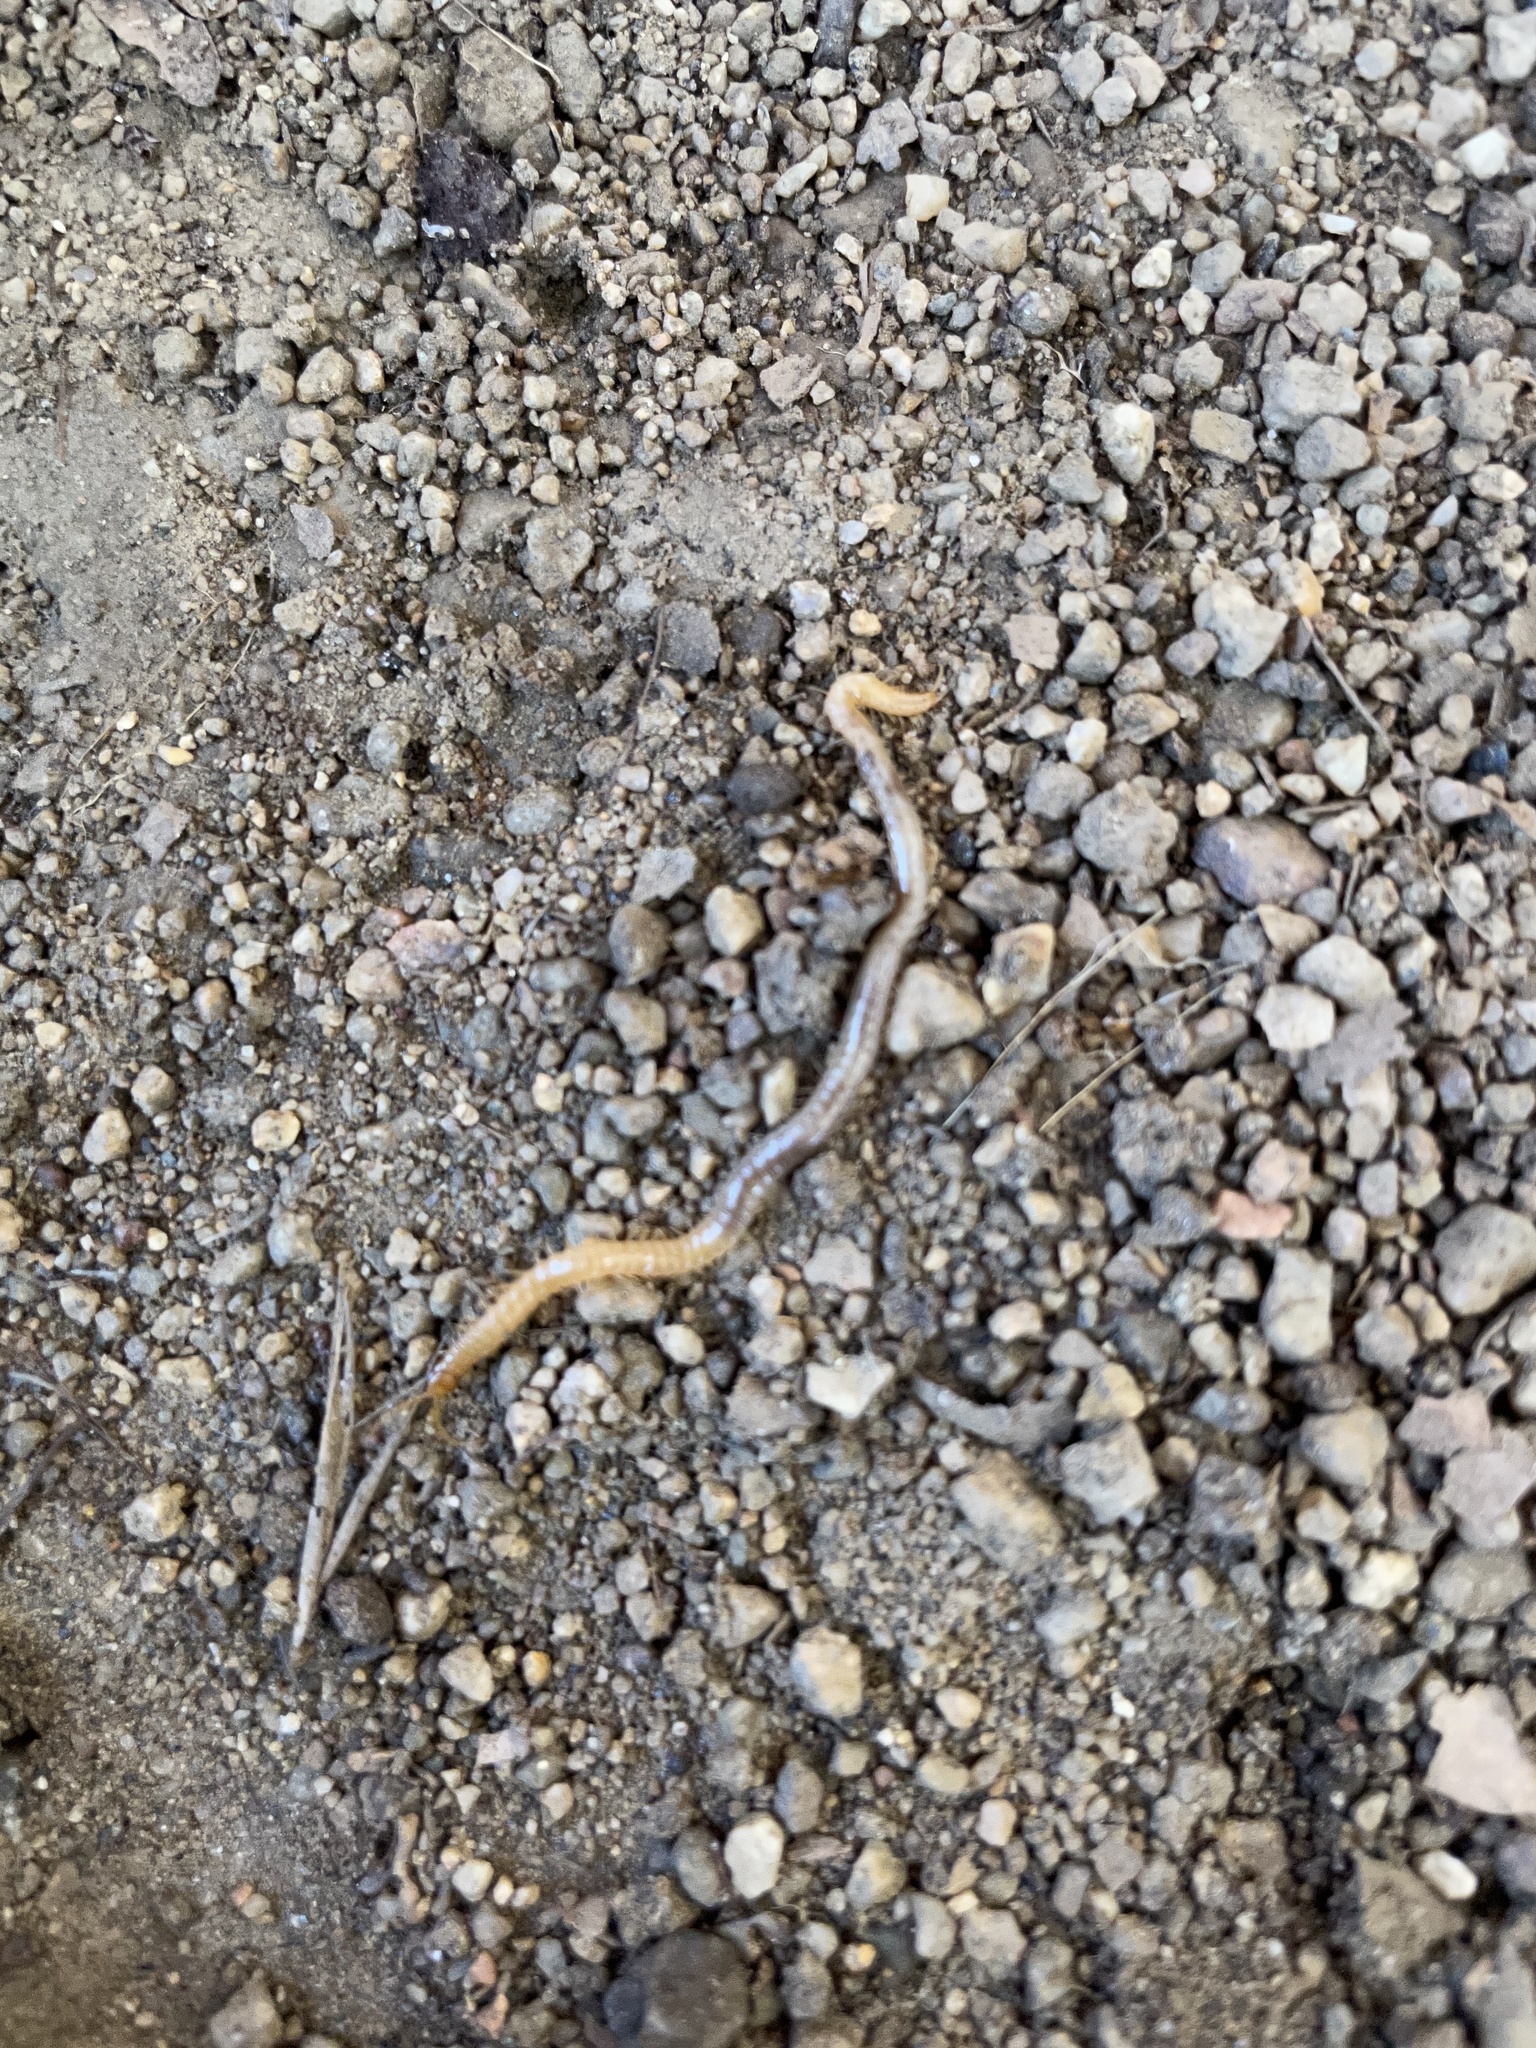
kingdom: Animalia
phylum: Arthropoda
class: Chilopoda
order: Geophilomorpha
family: Geophilidae
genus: Geophilus
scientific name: Geophilus regnans
